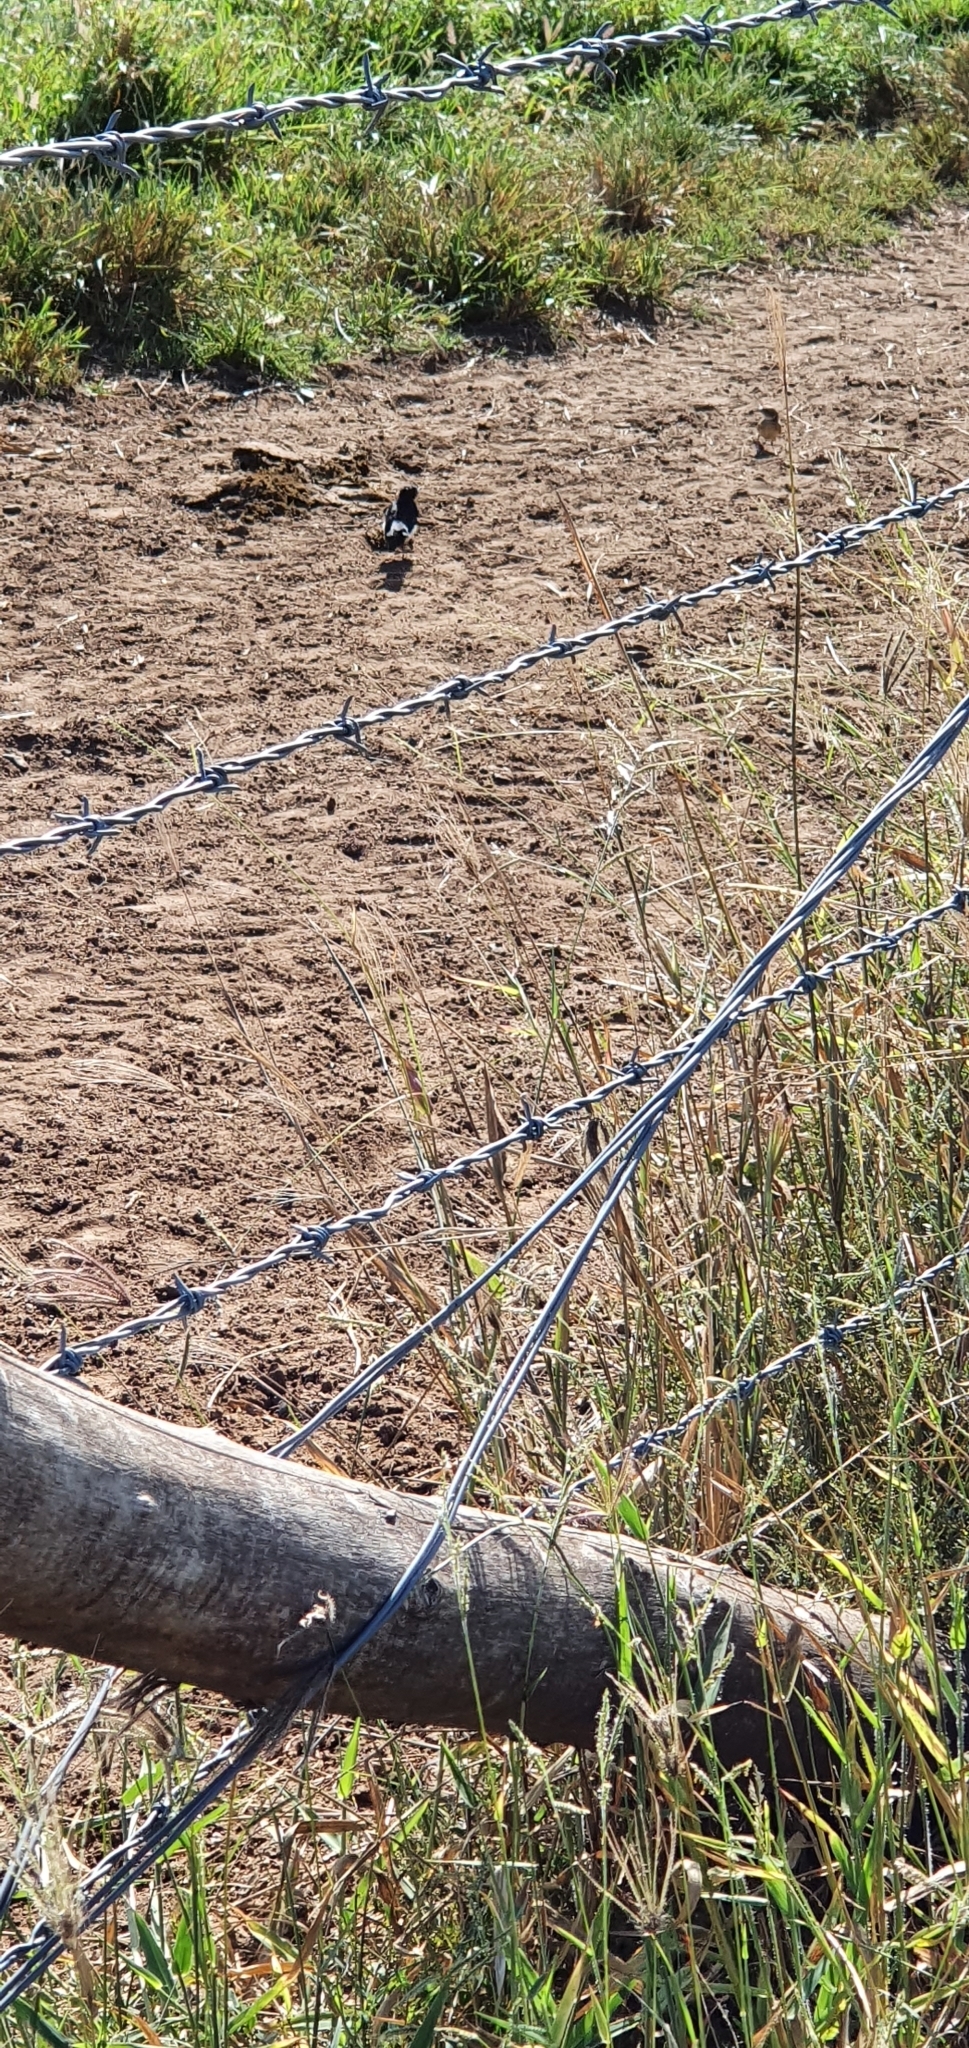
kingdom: Animalia
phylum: Chordata
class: Aves
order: Passeriformes
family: Rhipiduridae
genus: Rhipidura
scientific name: Rhipidura leucophrys
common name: Willie wagtail
